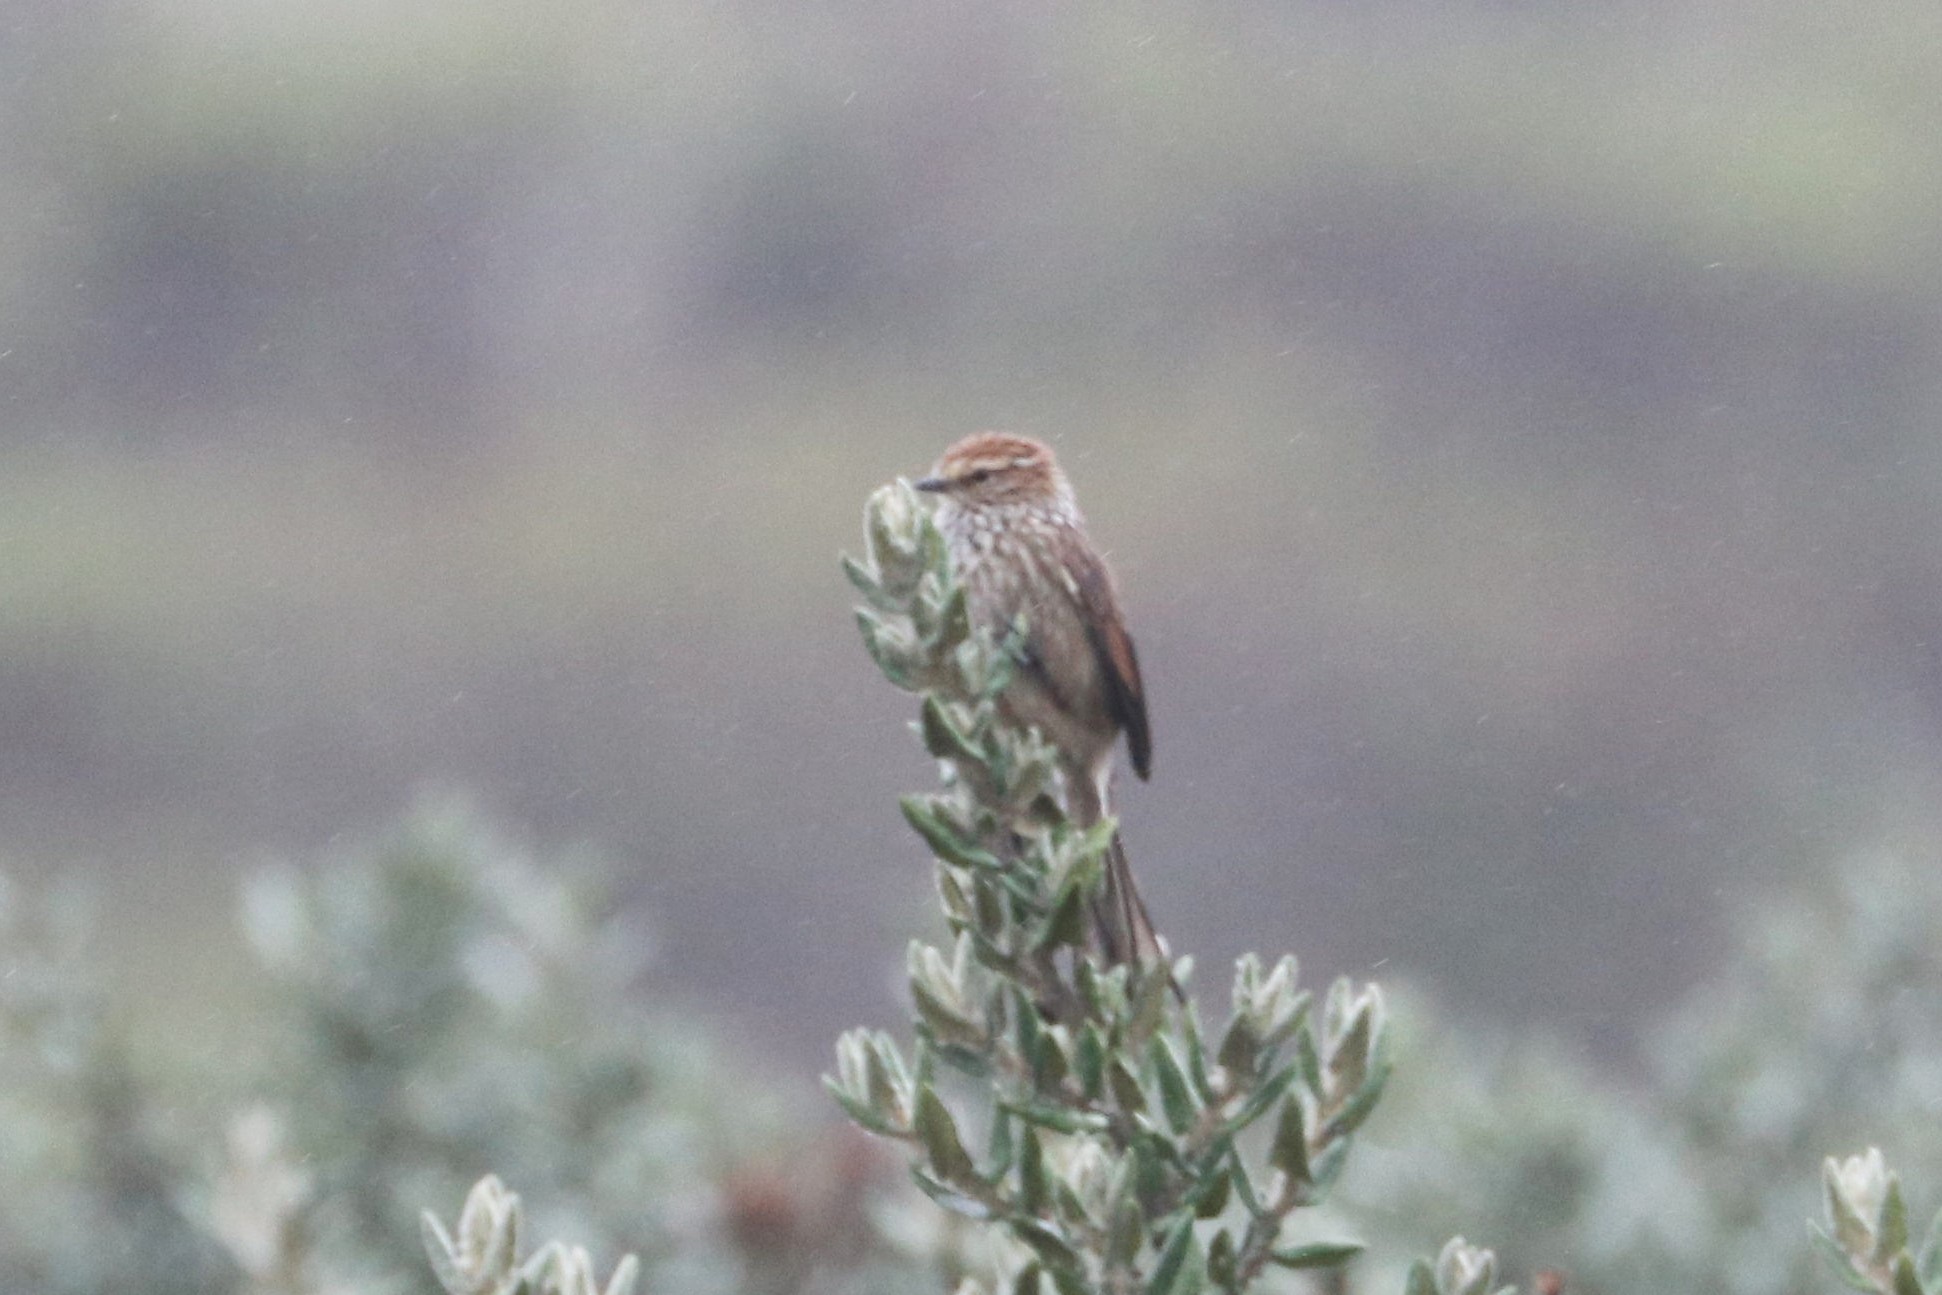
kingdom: Animalia
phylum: Chordata
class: Aves
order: Passeriformes
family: Furnariidae
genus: Leptasthenura
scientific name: Leptasthenura andicola
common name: Andean tit-spinetail
